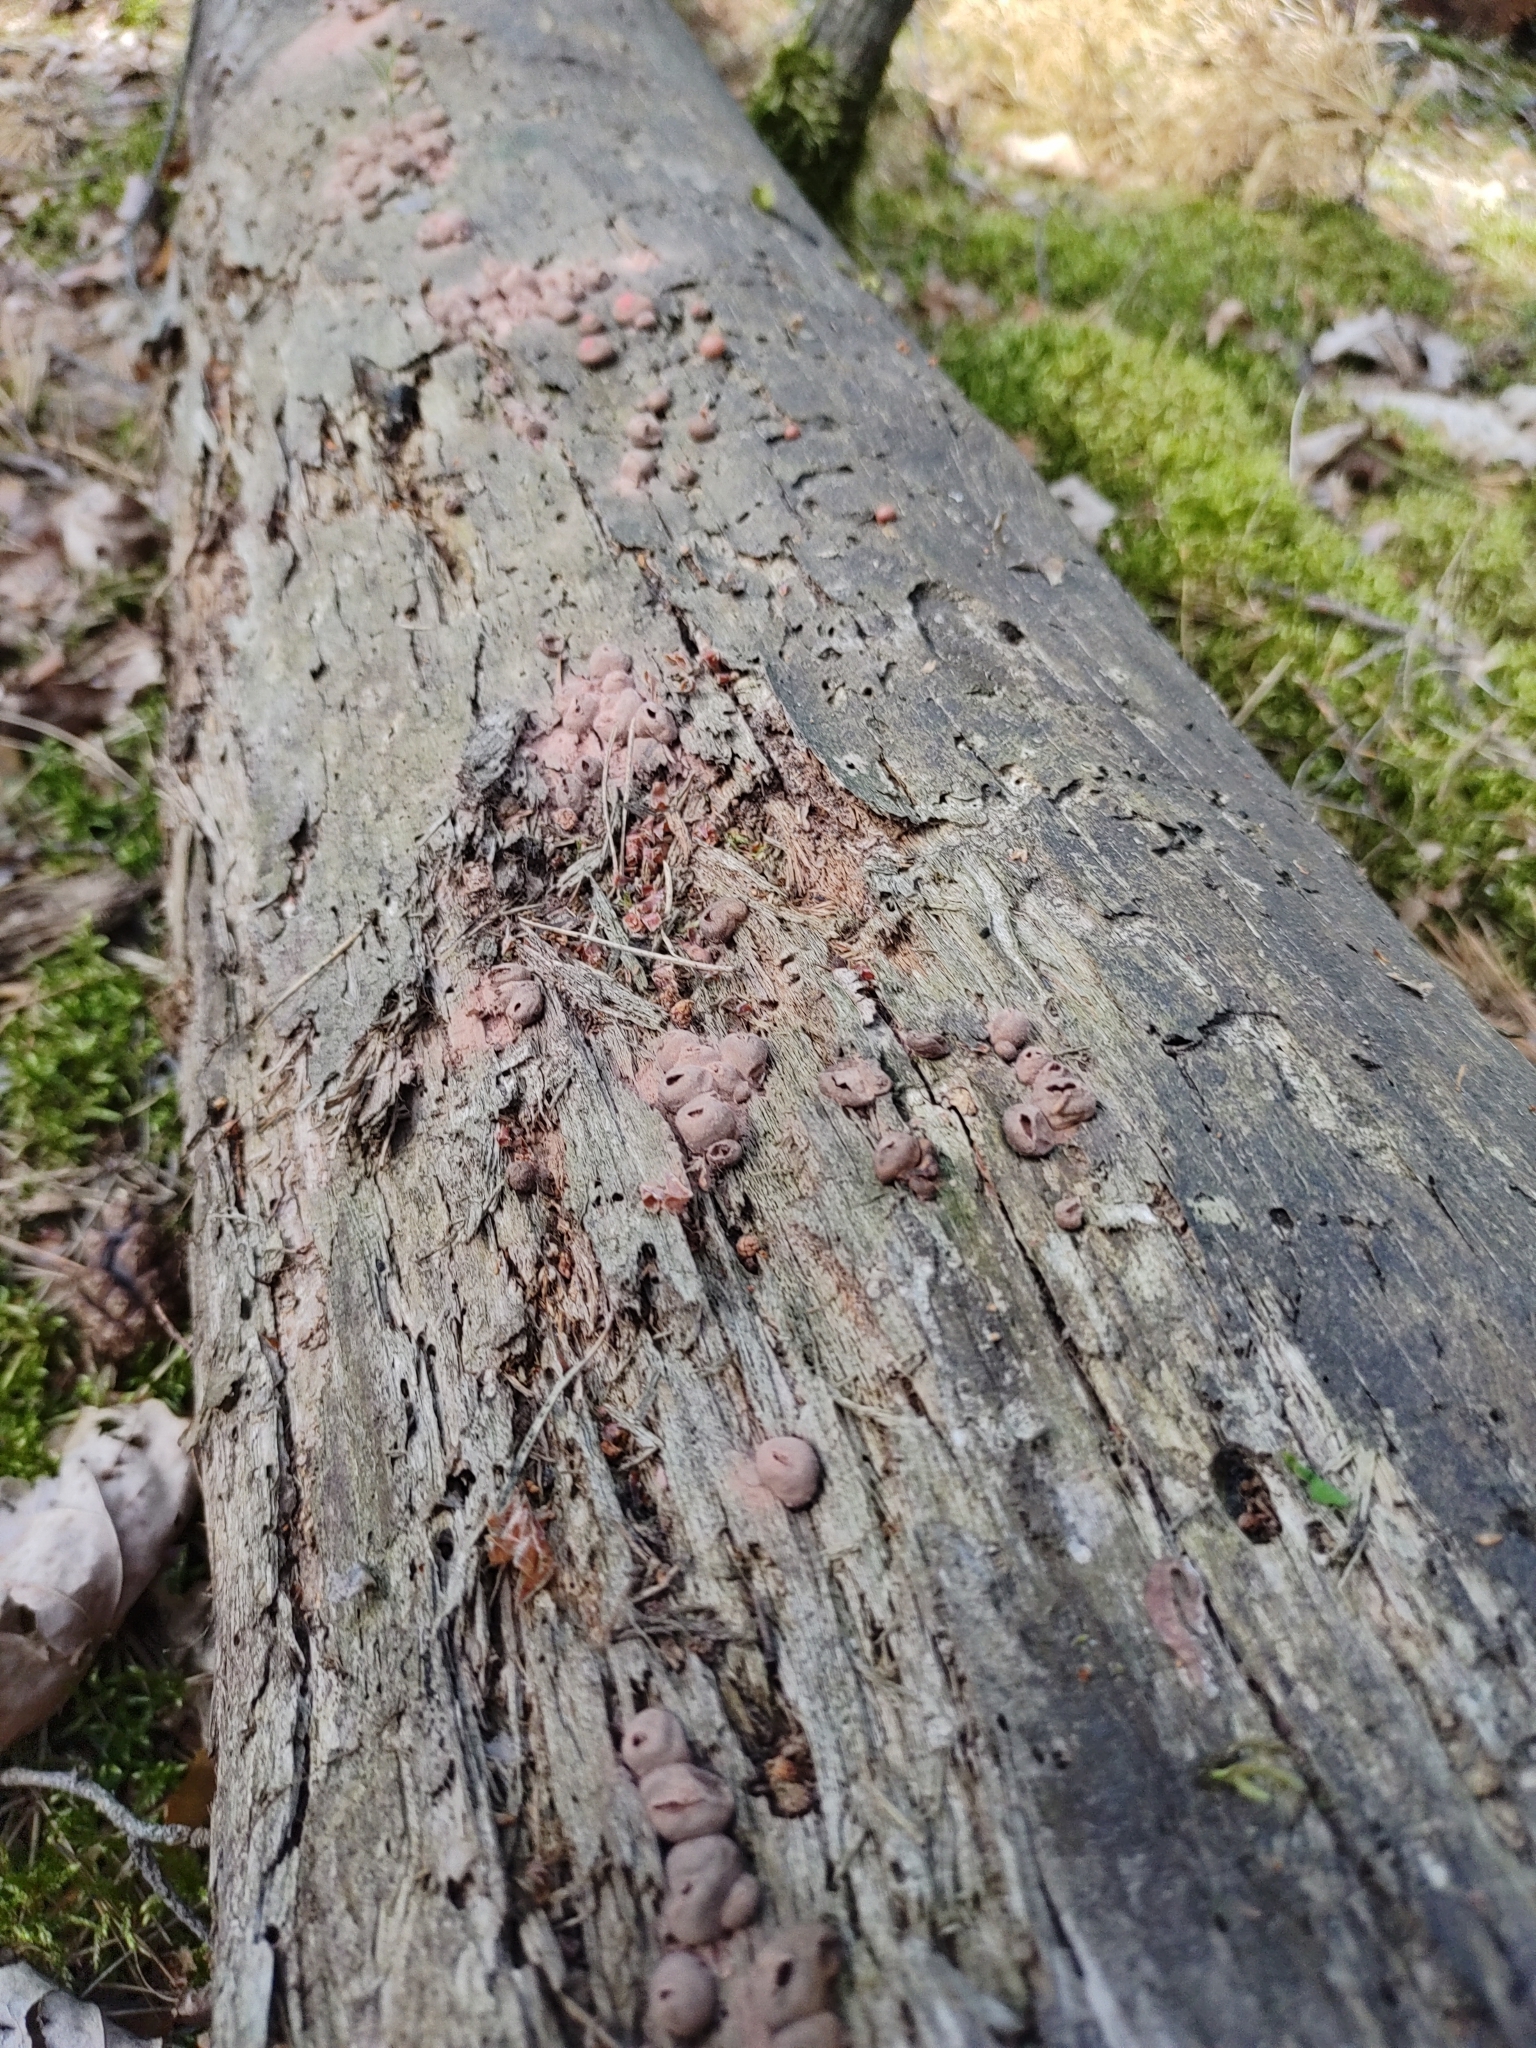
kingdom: Protozoa
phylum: Mycetozoa
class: Myxomycetes
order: Cribrariales
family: Tubiferaceae
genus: Lycogala
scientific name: Lycogala epidendrum
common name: Wolf's milk
